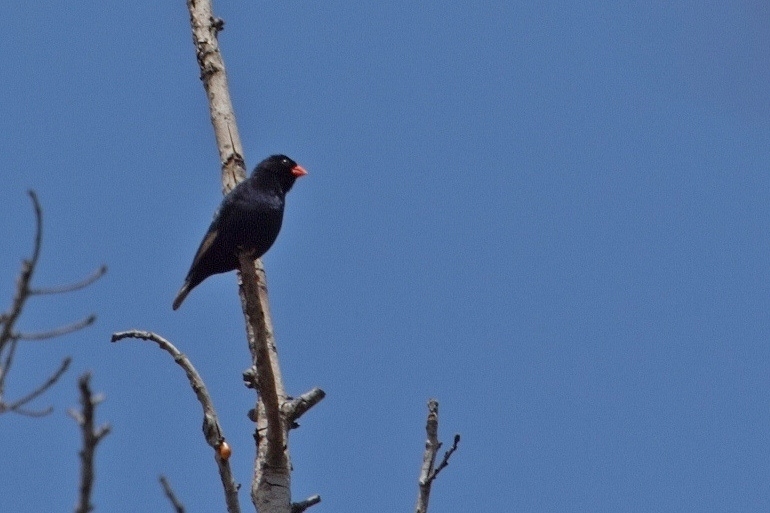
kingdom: Animalia
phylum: Chordata
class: Aves
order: Passeriformes
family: Viduidae
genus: Vidua
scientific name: Vidua chalybeata
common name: Village indigobird
